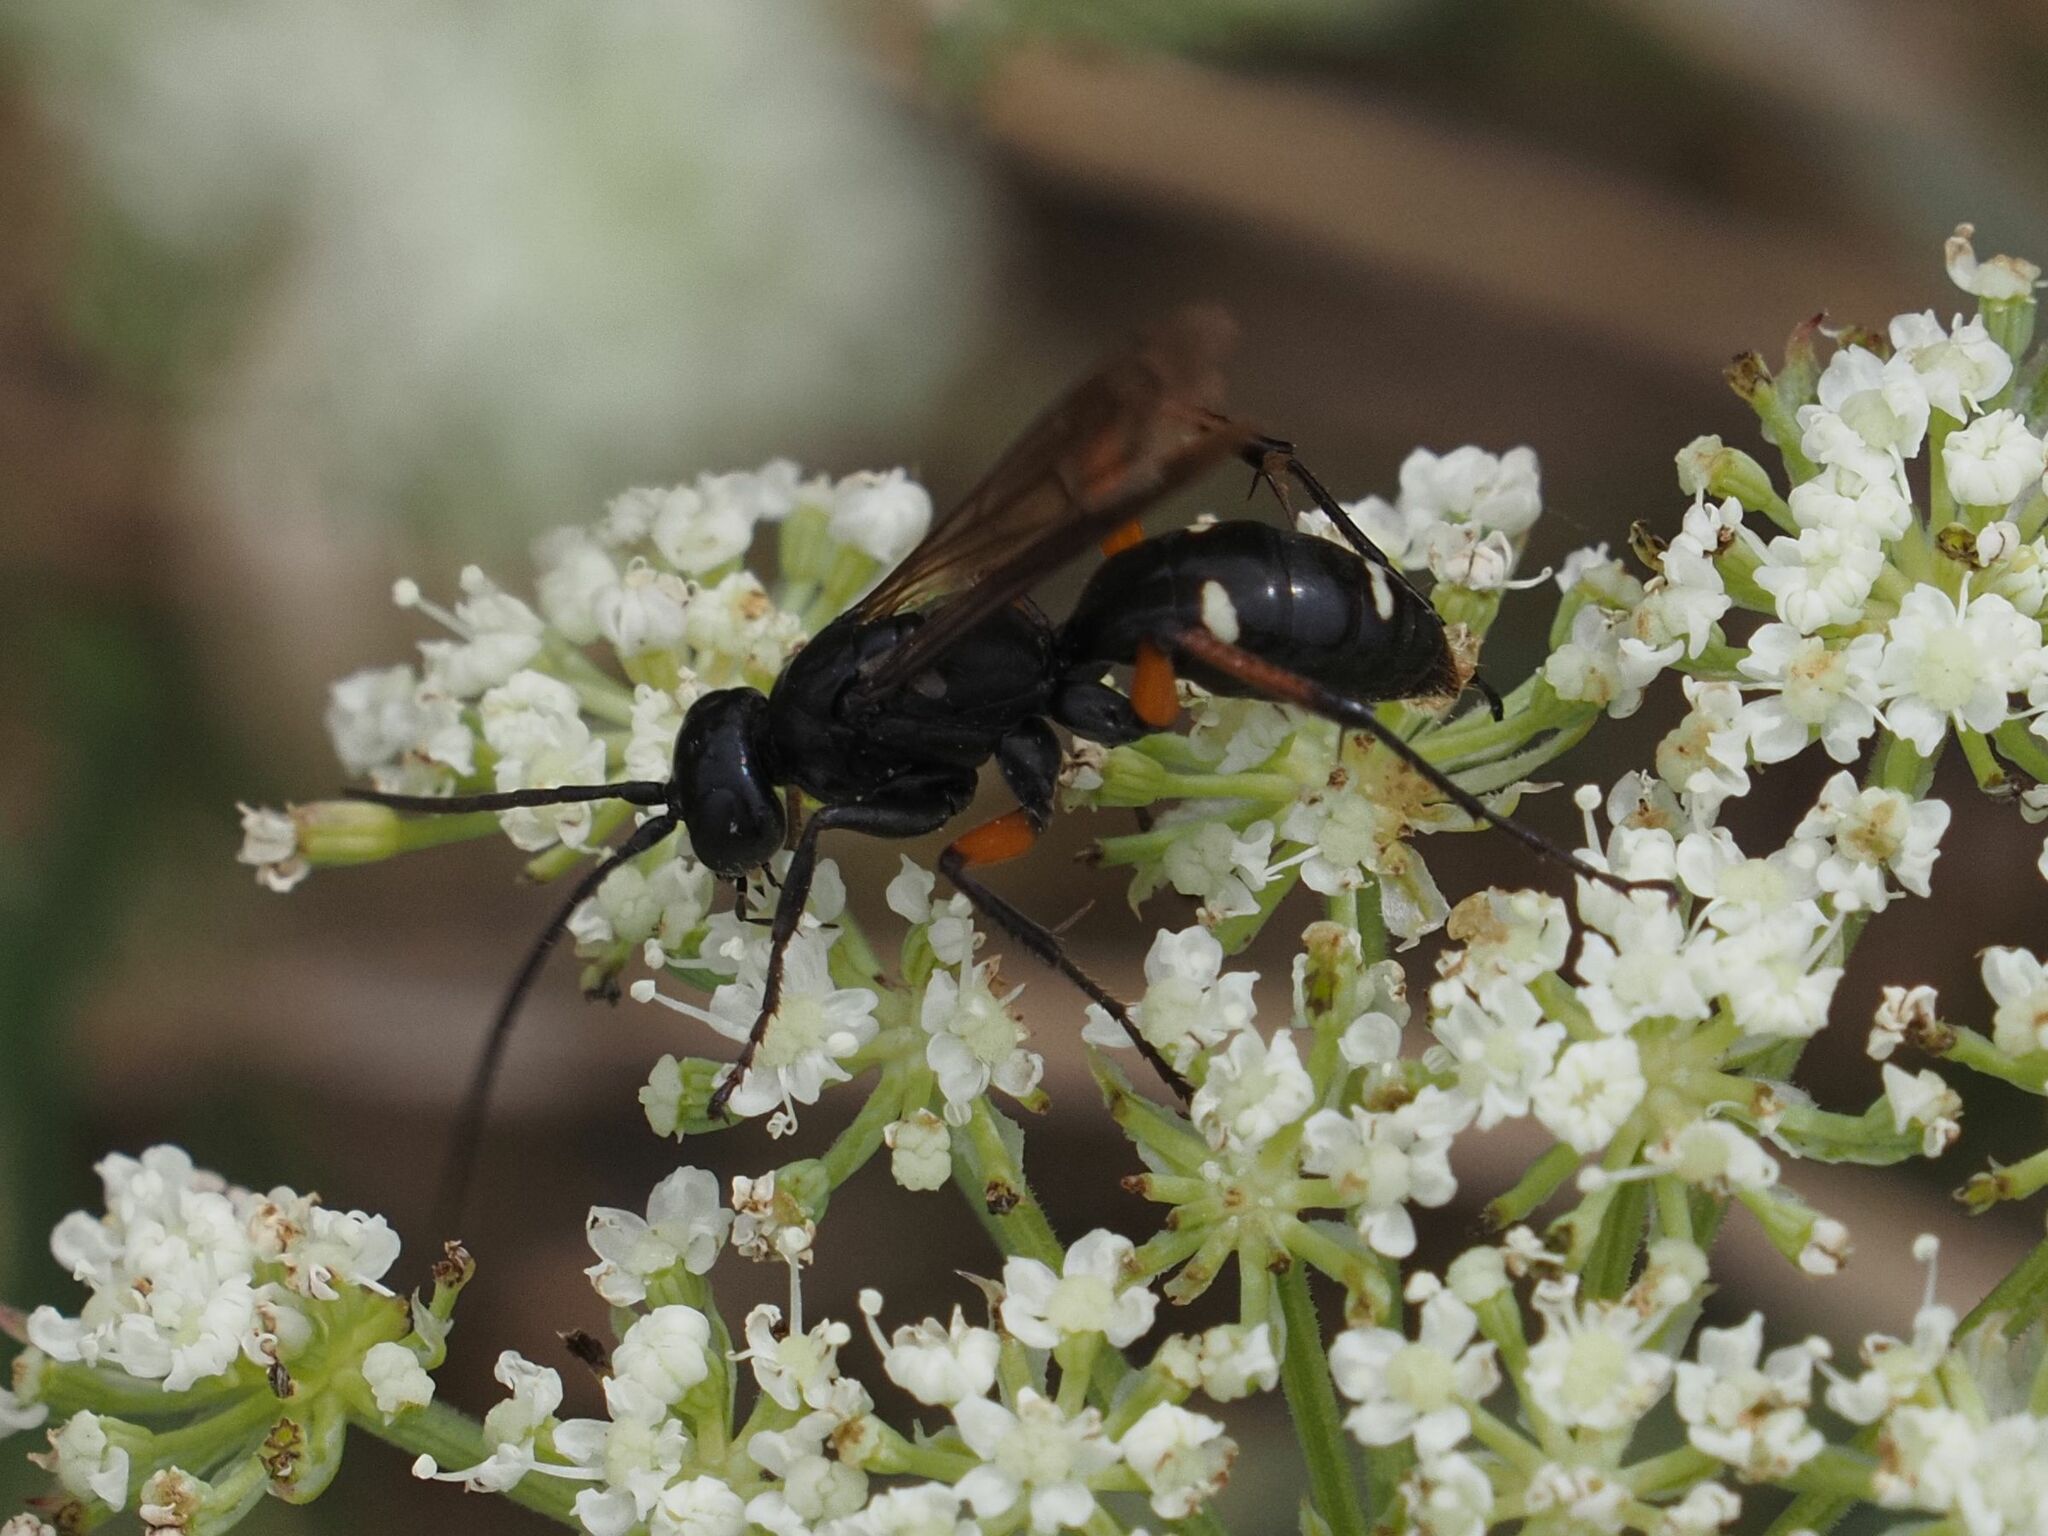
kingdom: Animalia
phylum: Arthropoda
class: Insecta
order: Hymenoptera
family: Pompilidae
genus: Cryptocheilus
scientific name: Cryptocheilus versicolor
